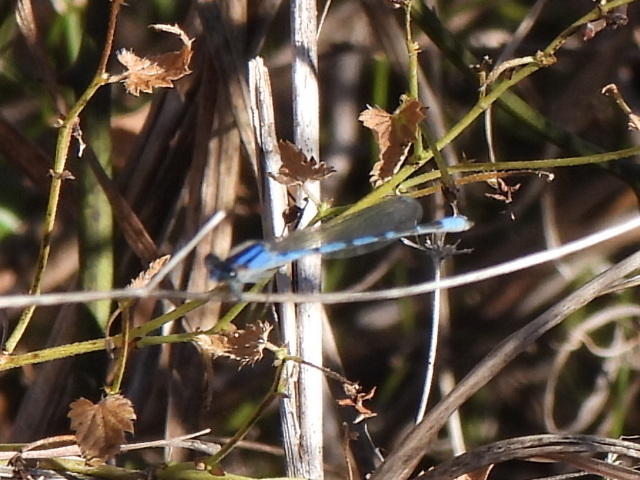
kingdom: Animalia
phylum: Arthropoda
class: Insecta
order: Odonata
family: Coenagrionidae
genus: Enallagma
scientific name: Enallagma civile
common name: Damselfly
